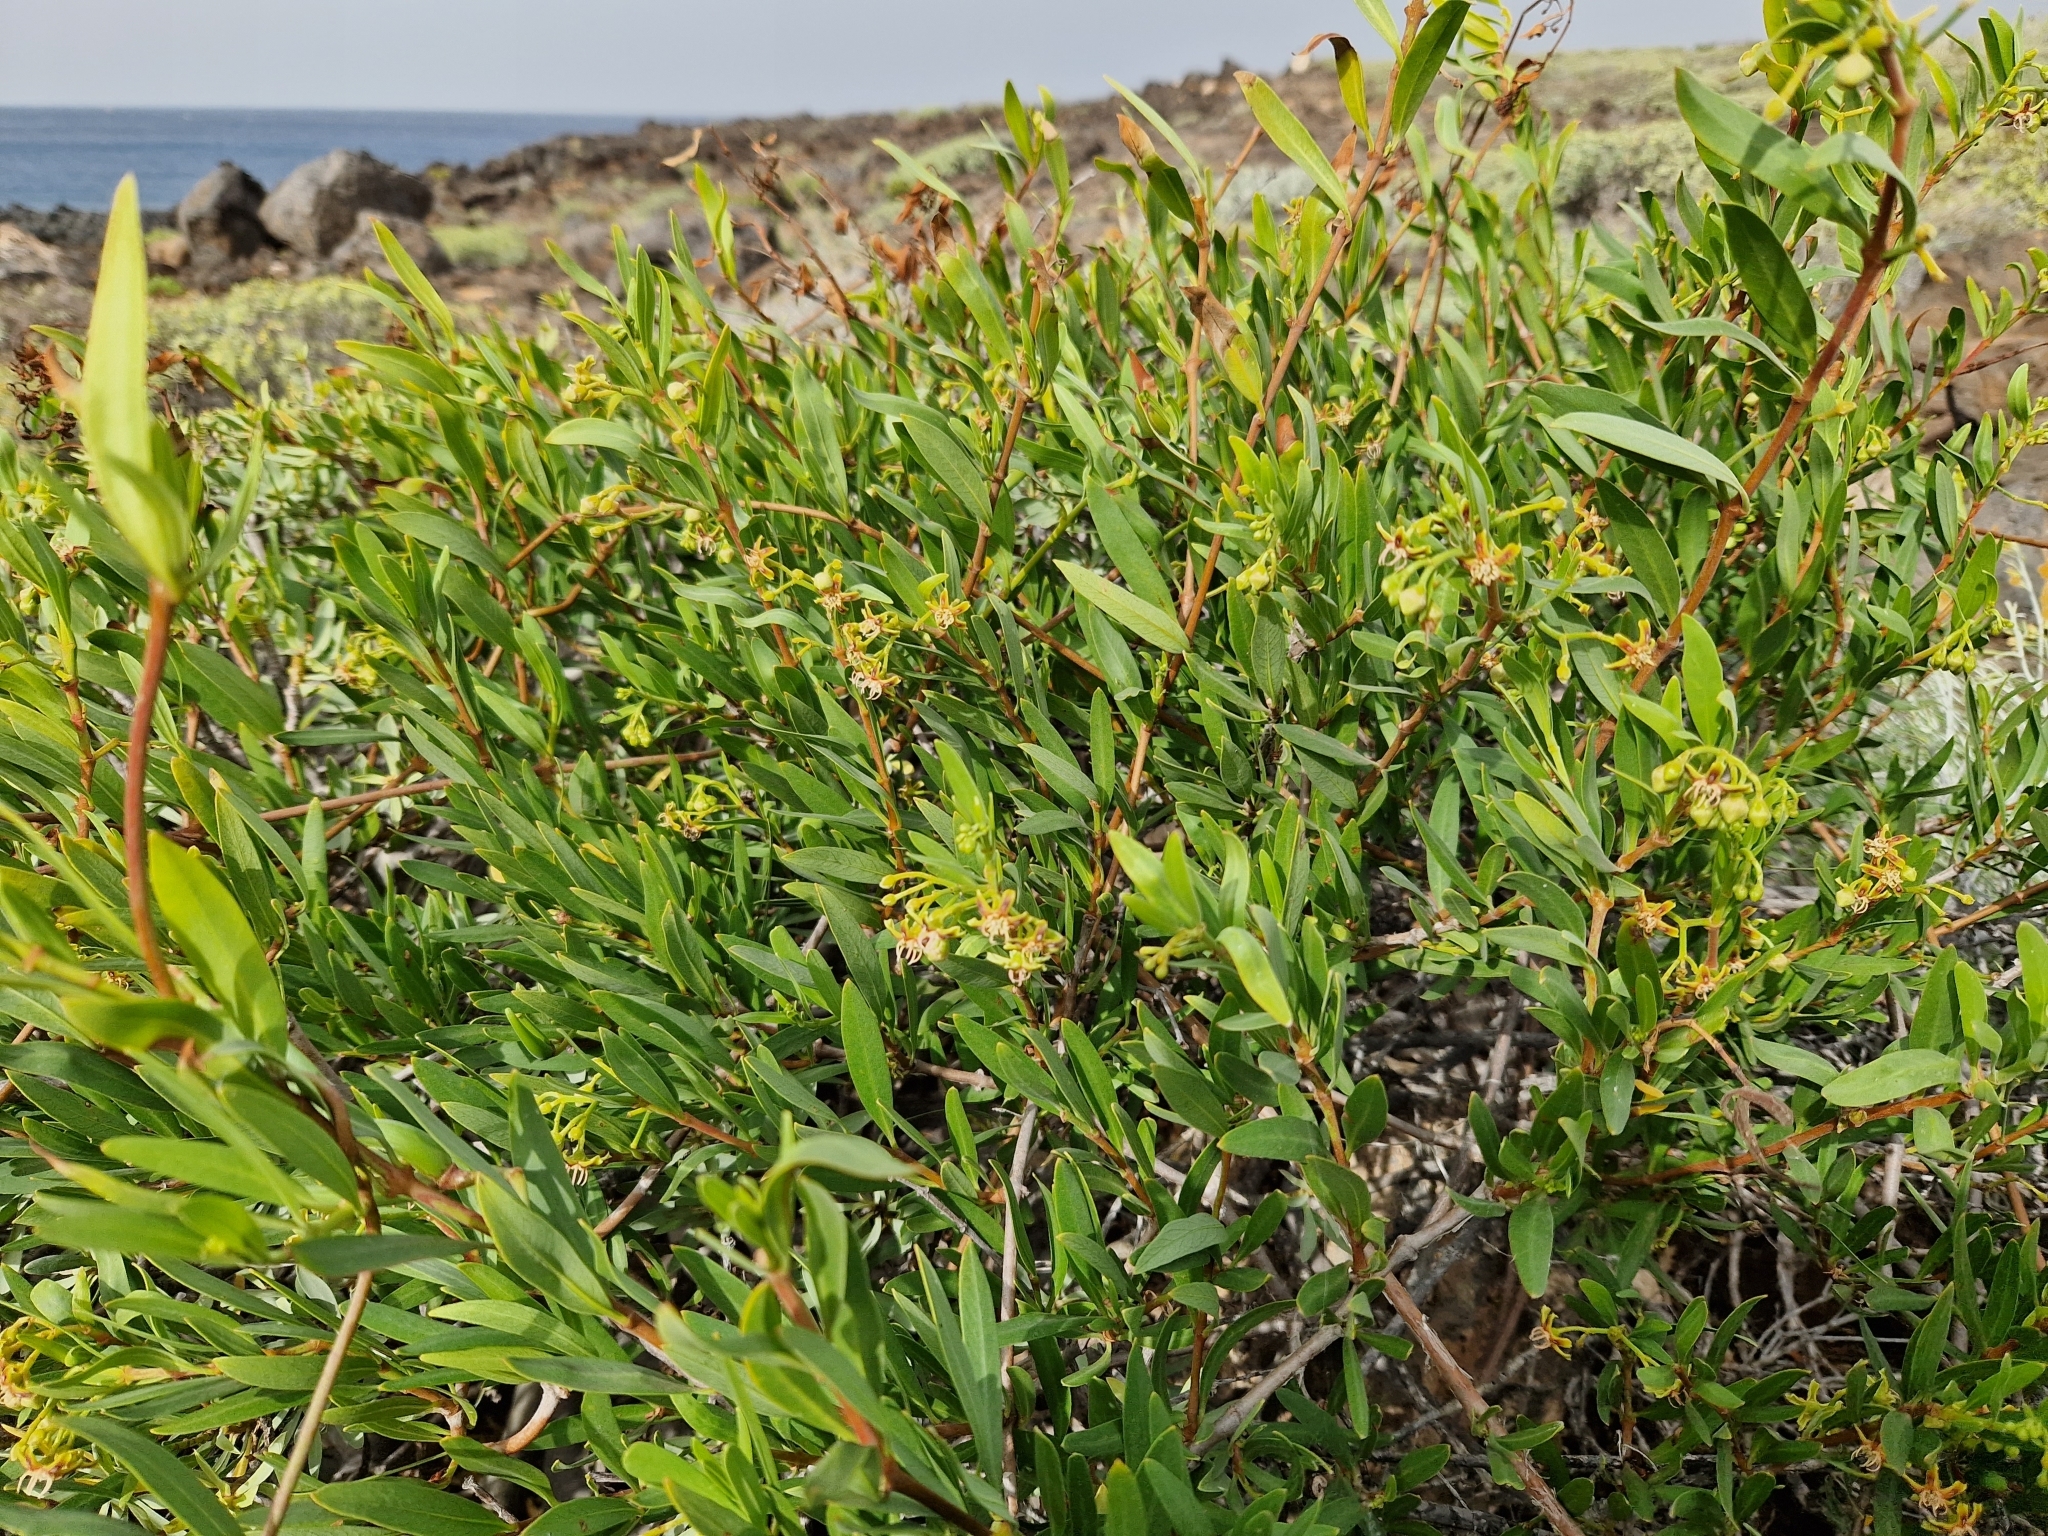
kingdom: Plantae
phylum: Tracheophyta
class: Magnoliopsida
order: Gentianales
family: Apocynaceae
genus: Periploca
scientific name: Periploca laevigata
